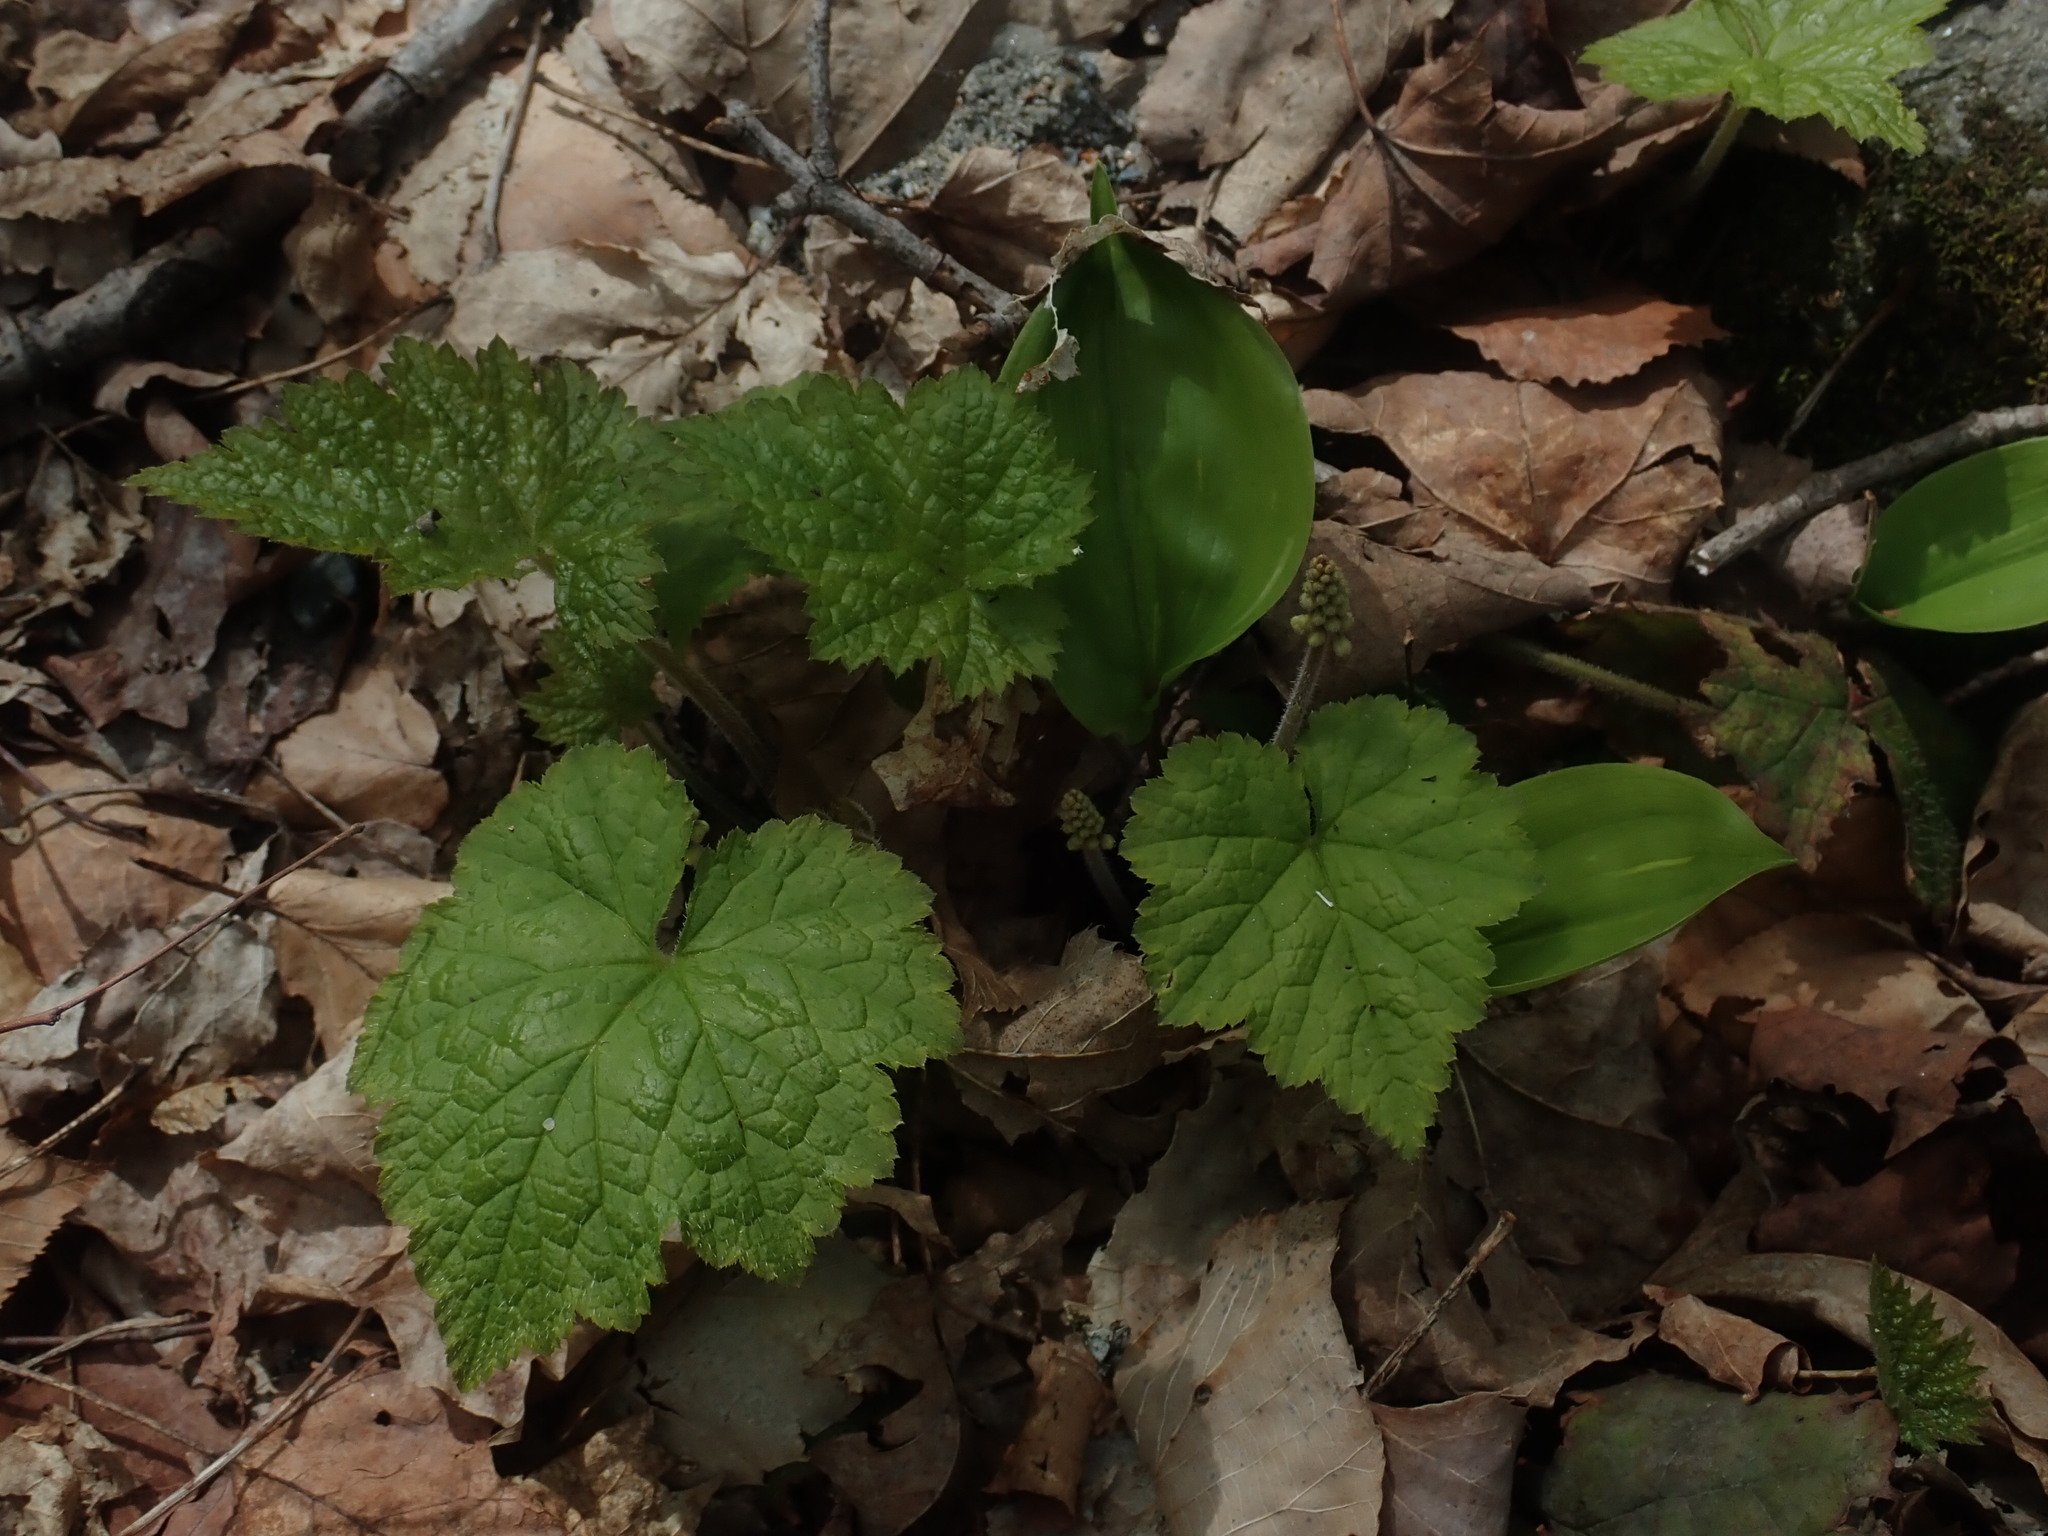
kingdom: Plantae
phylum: Tracheophyta
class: Magnoliopsida
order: Saxifragales
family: Saxifragaceae
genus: Tiarella
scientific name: Tiarella stolonifera
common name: Stoloniferous foamflower
